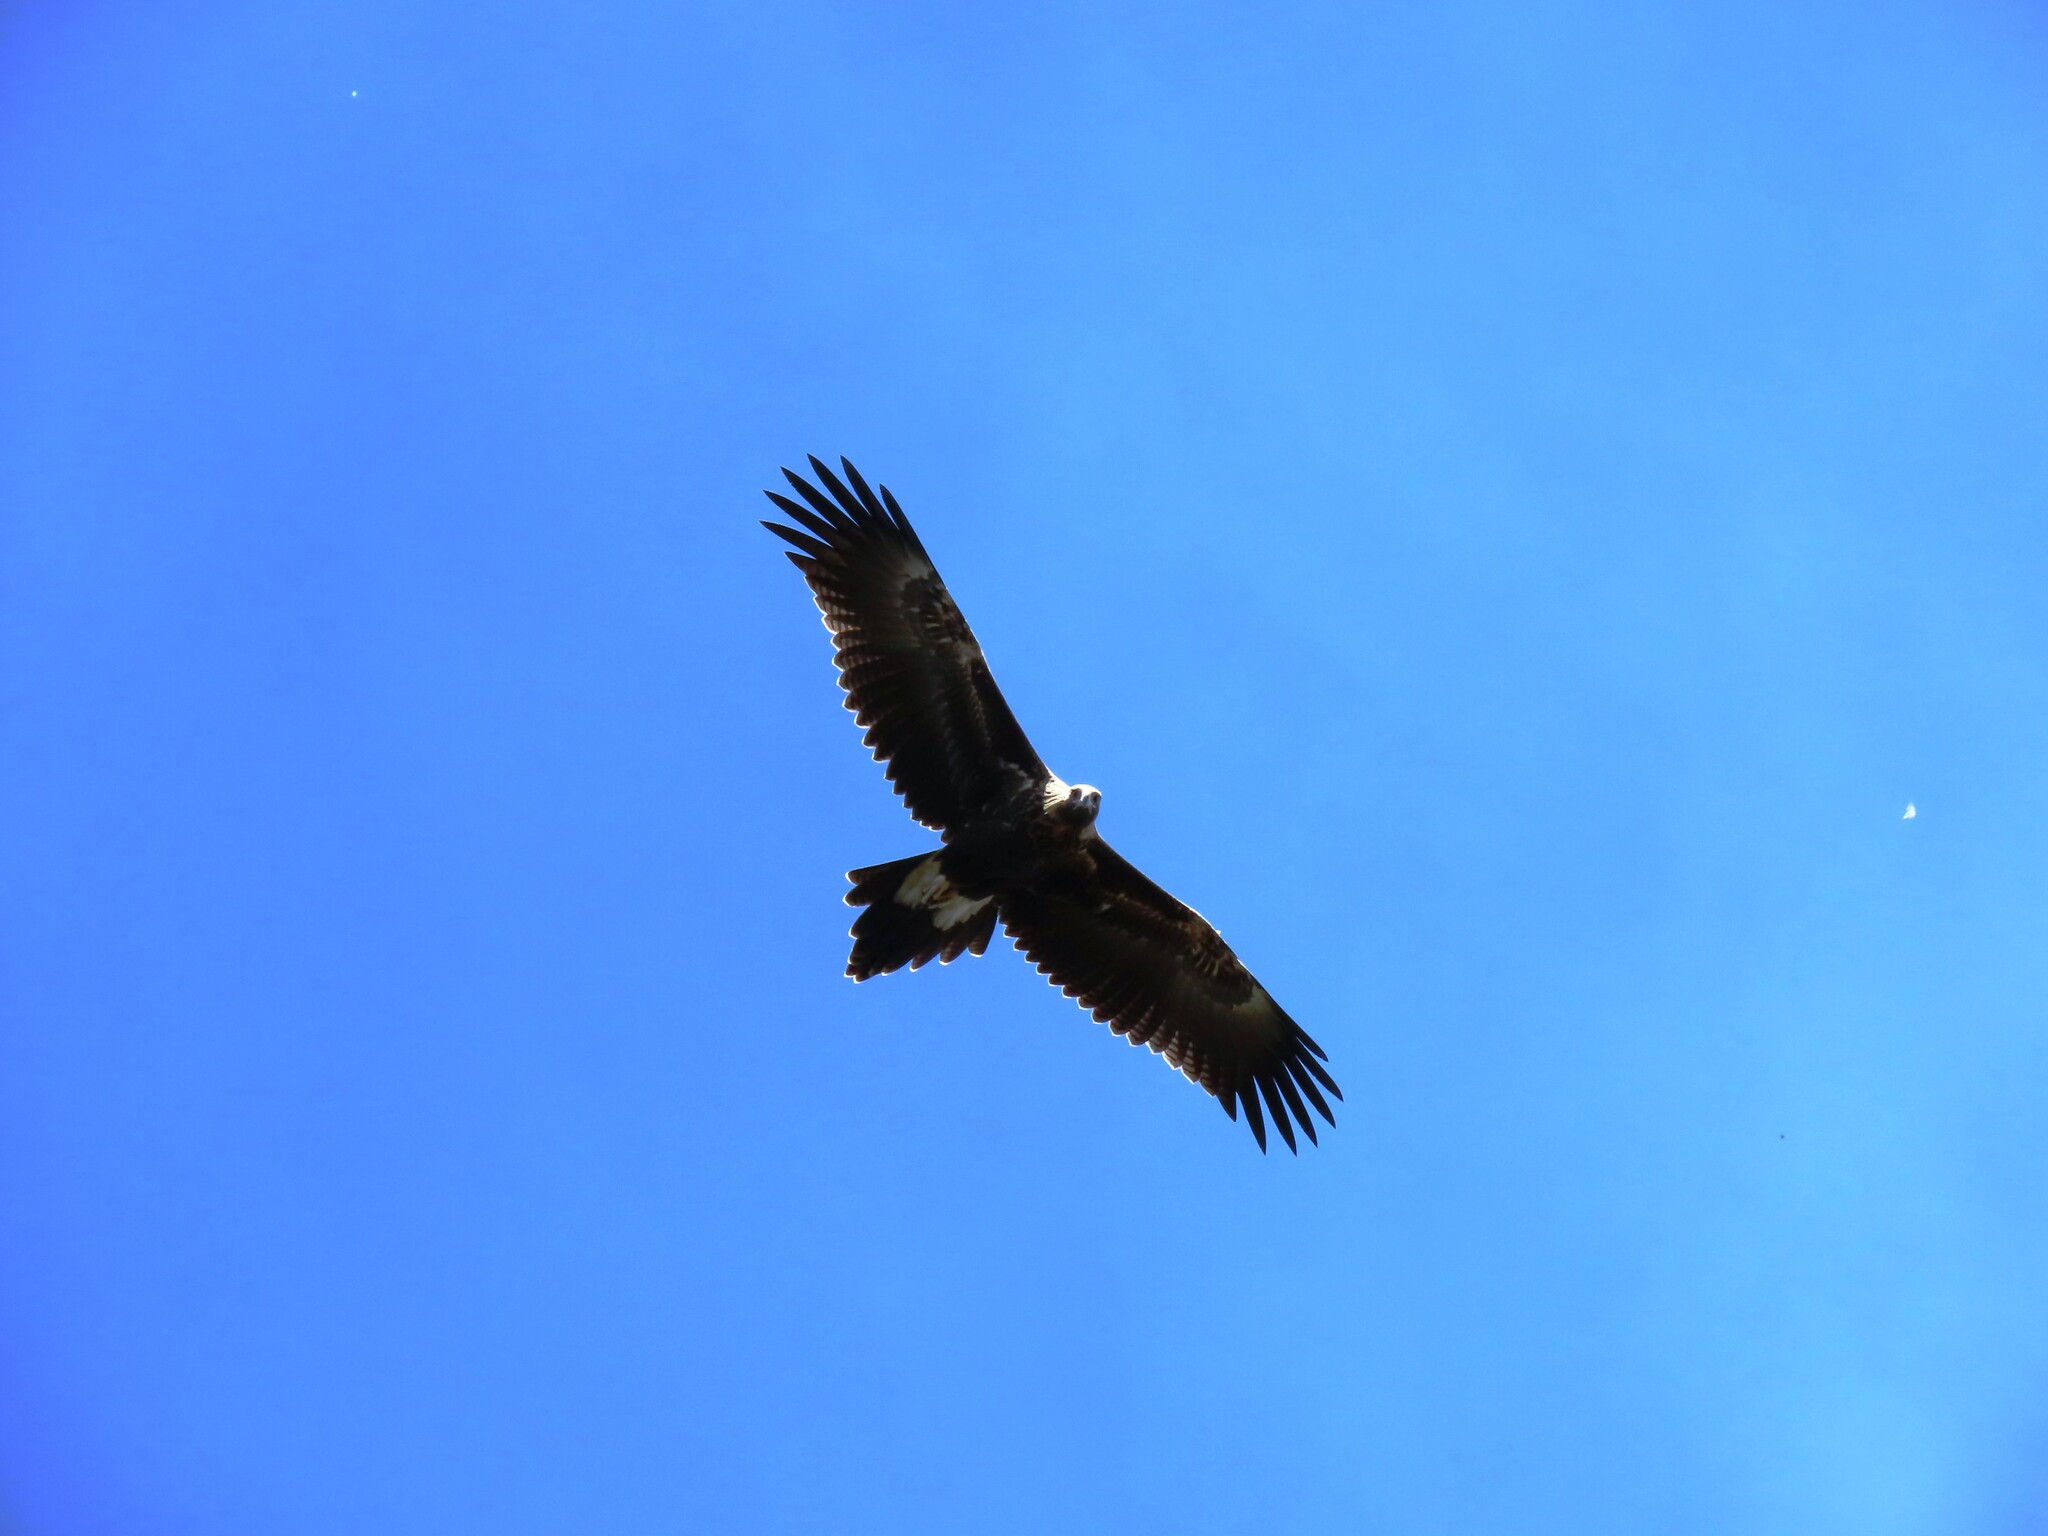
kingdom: Animalia
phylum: Chordata
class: Aves
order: Accipitriformes
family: Accipitridae
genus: Aquila
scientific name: Aquila audax
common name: Wedge-tailed eagle
